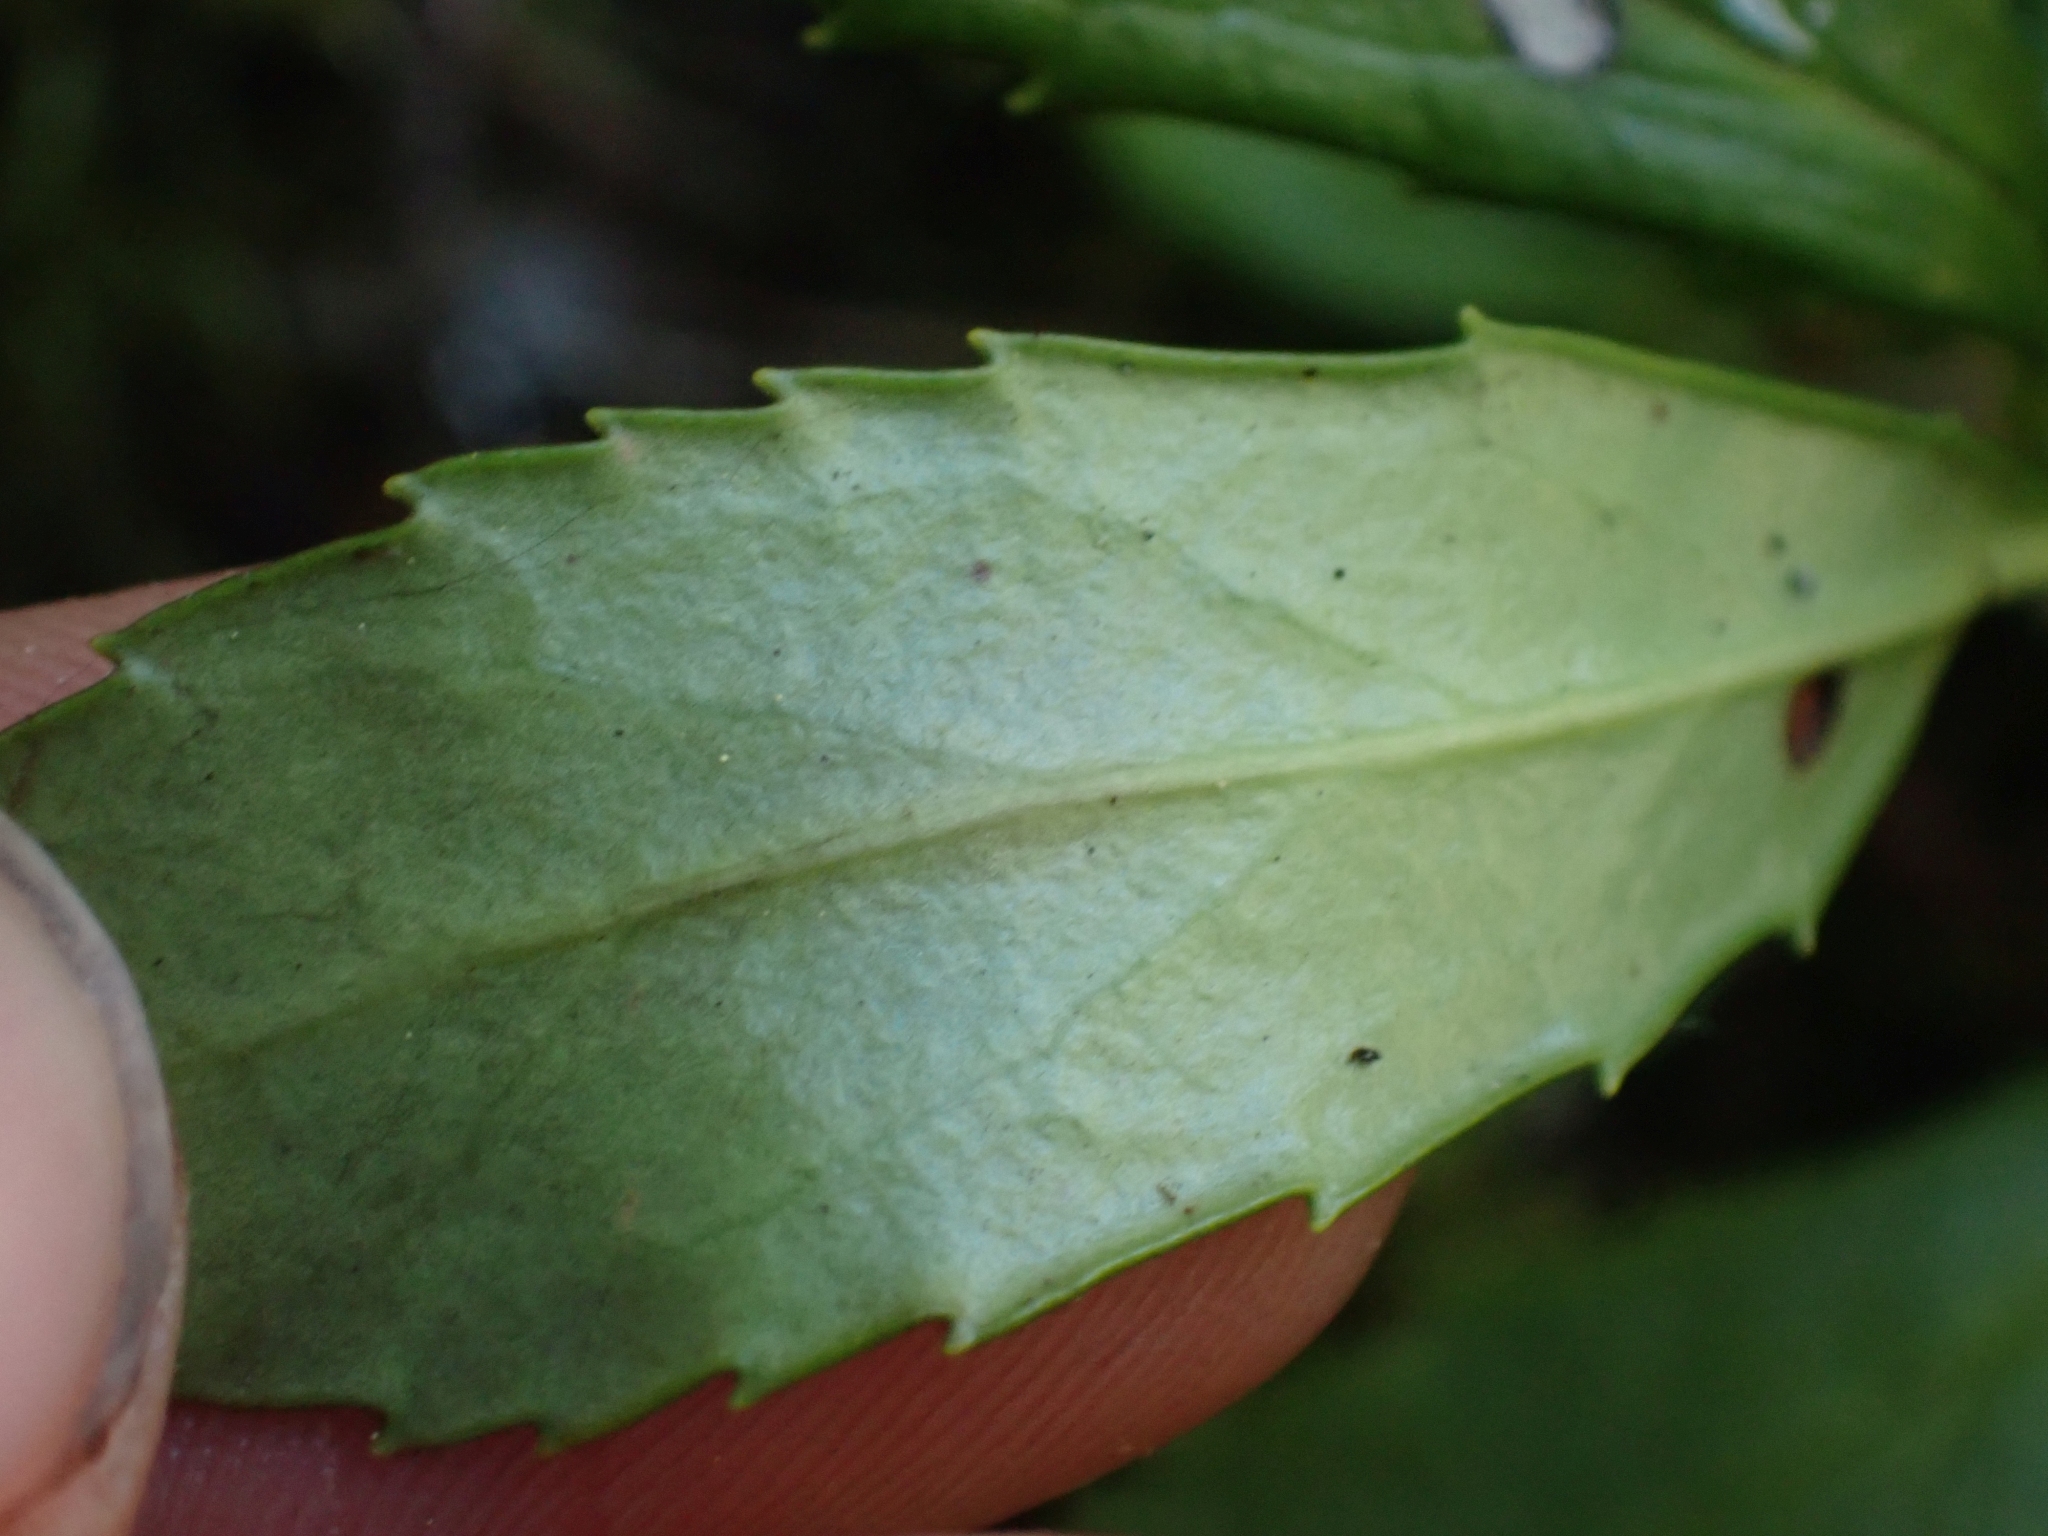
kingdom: Plantae
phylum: Tracheophyta
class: Magnoliopsida
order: Ericales
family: Ericaceae
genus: Chimaphila
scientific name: Chimaphila umbellata
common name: Pipsissewa
